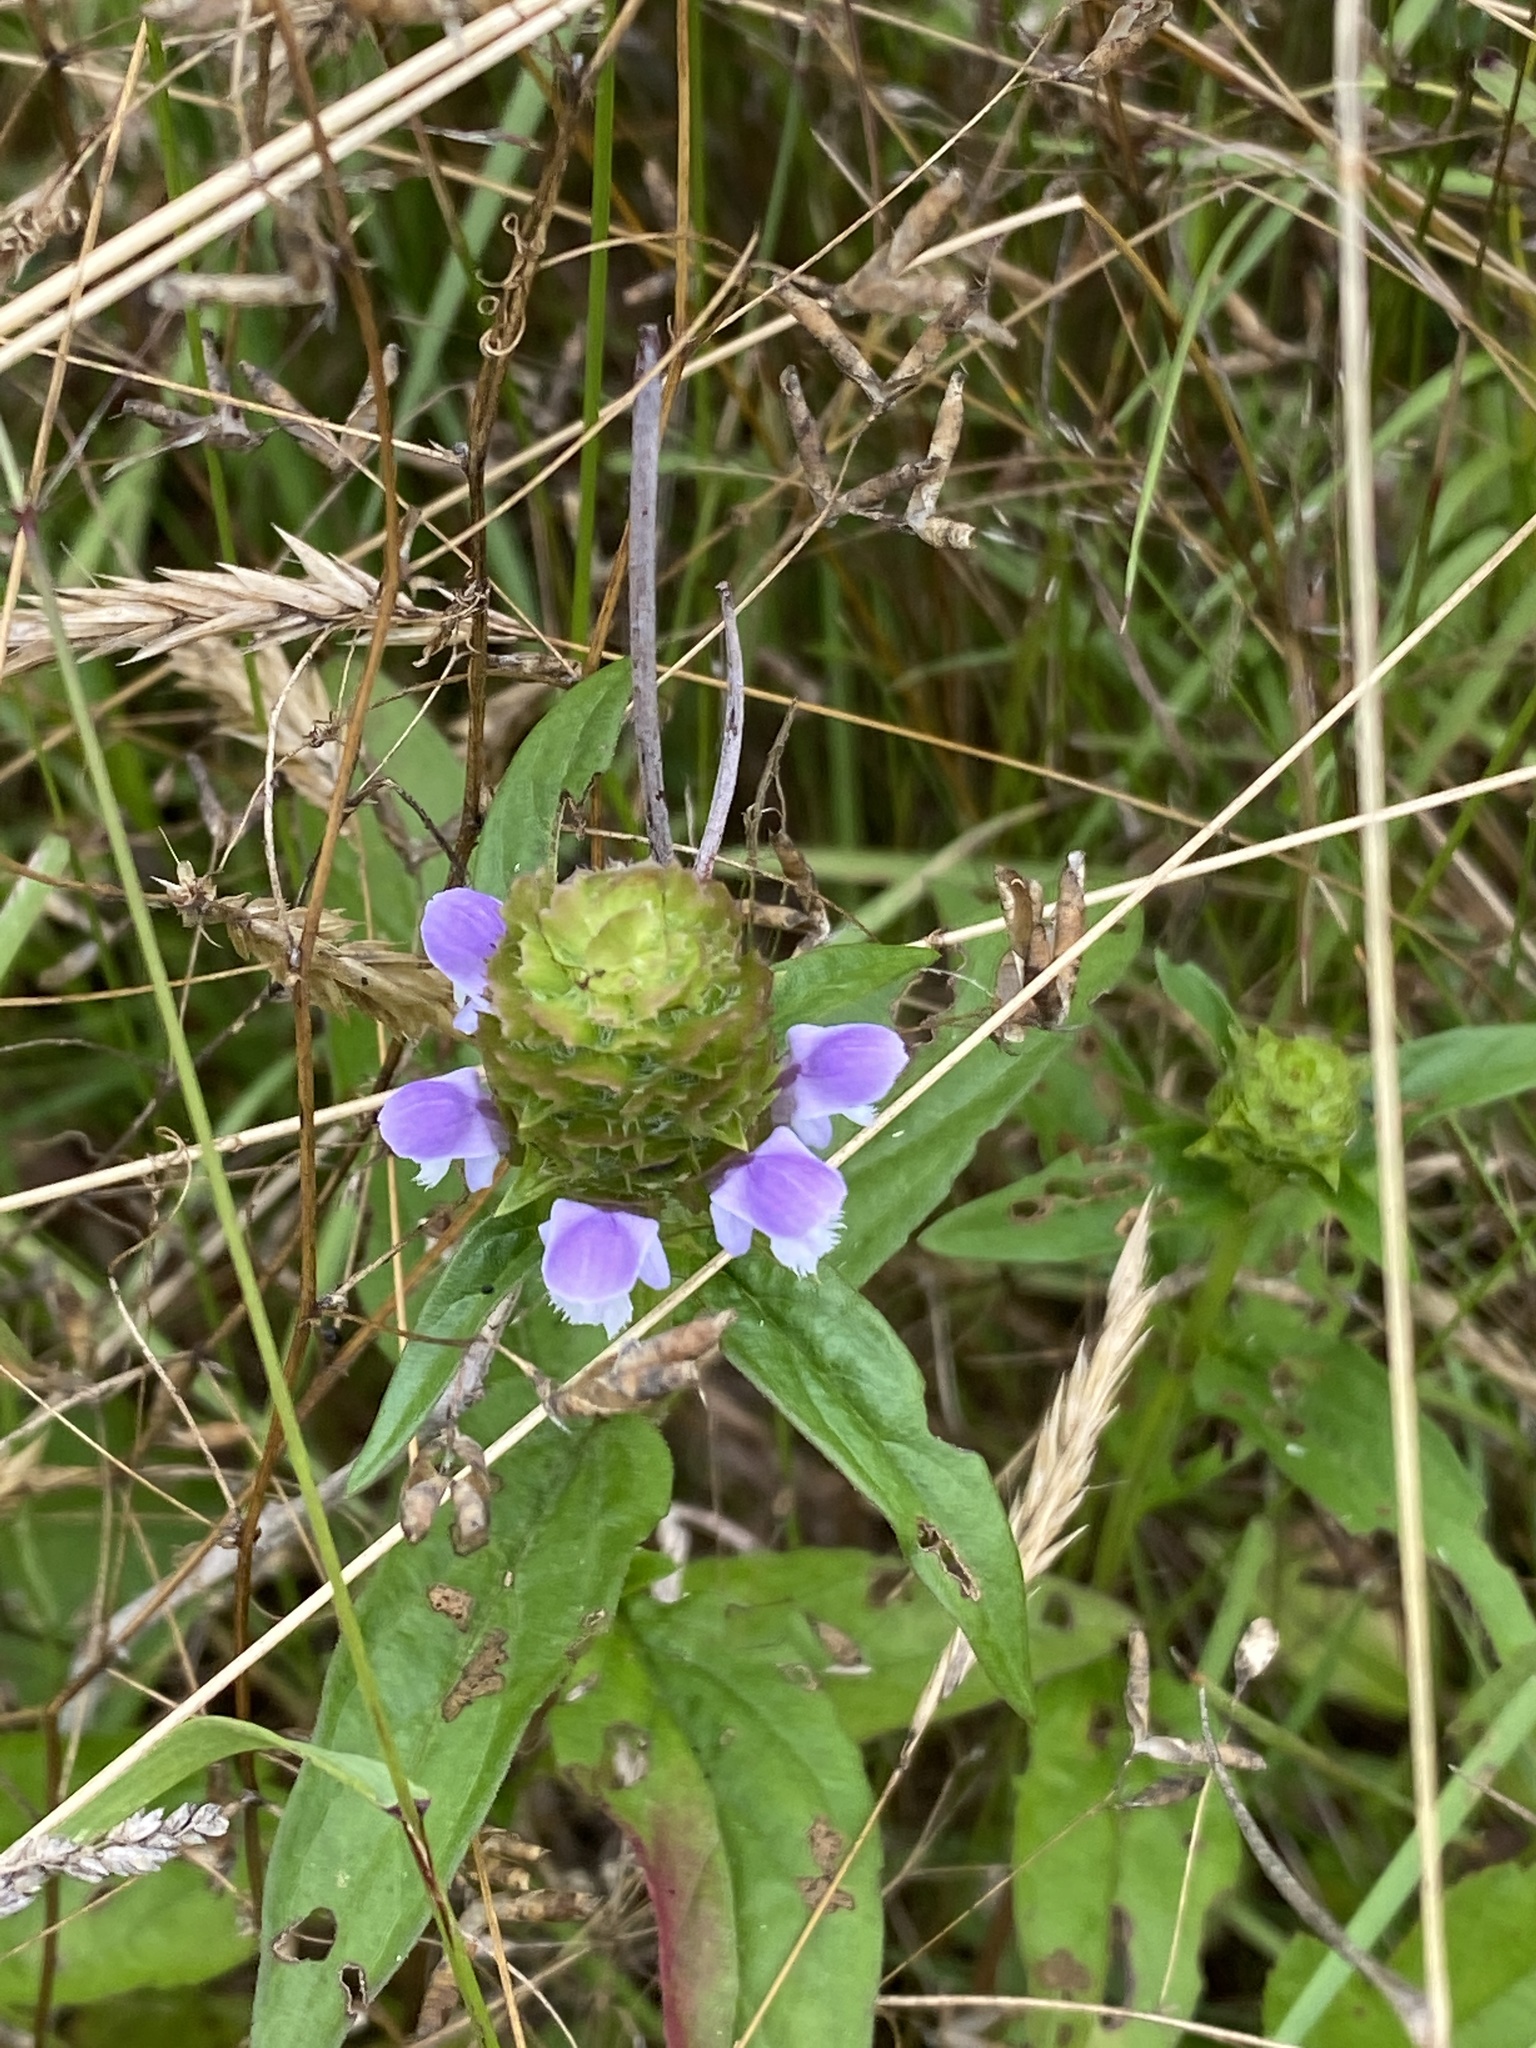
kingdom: Plantae
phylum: Tracheophyta
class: Magnoliopsida
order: Lamiales
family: Lamiaceae
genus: Prunella
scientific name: Prunella vulgaris
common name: Heal-all
